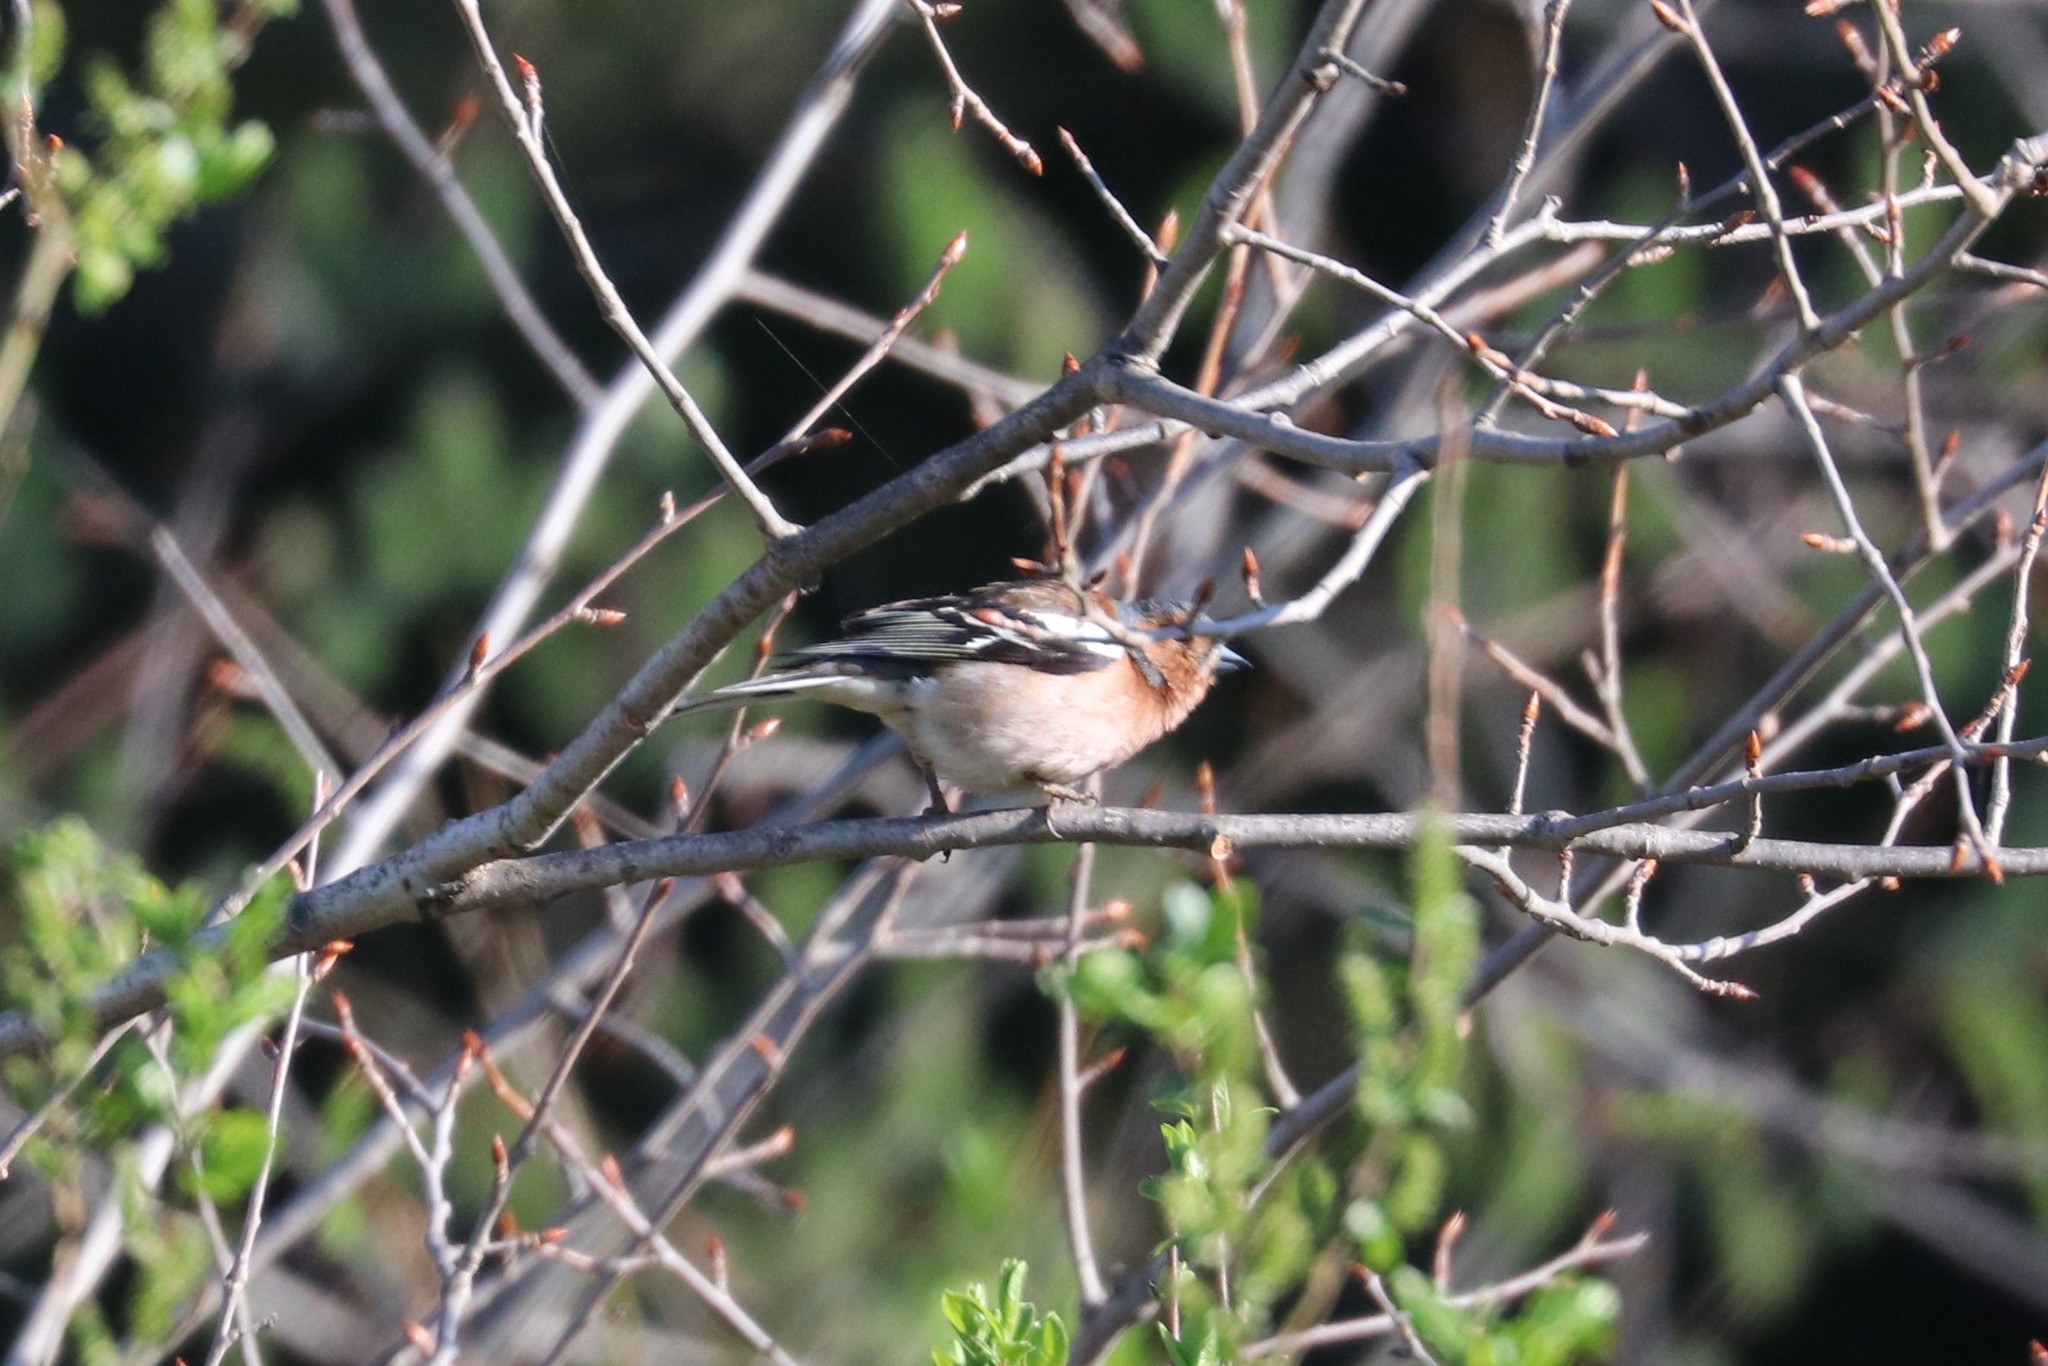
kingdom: Animalia
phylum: Chordata
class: Aves
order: Passeriformes
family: Fringillidae
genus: Fringilla
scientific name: Fringilla coelebs
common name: Common chaffinch
